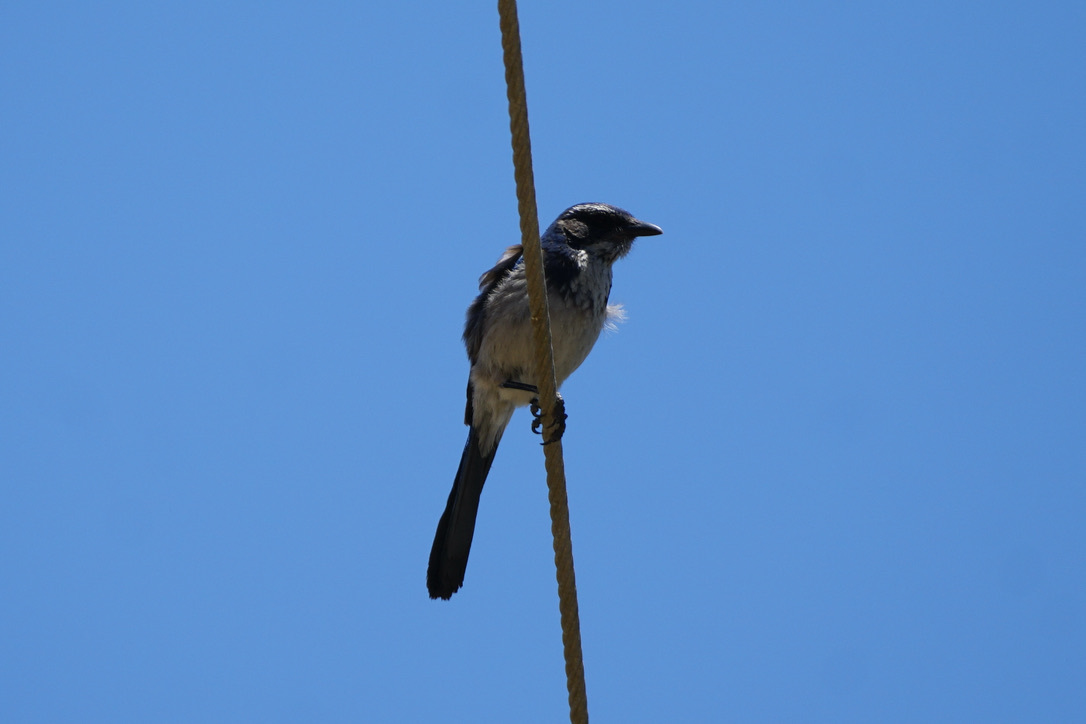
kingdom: Animalia
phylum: Chordata
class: Aves
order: Passeriformes
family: Corvidae
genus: Aphelocoma
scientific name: Aphelocoma californica
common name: California scrub-jay
